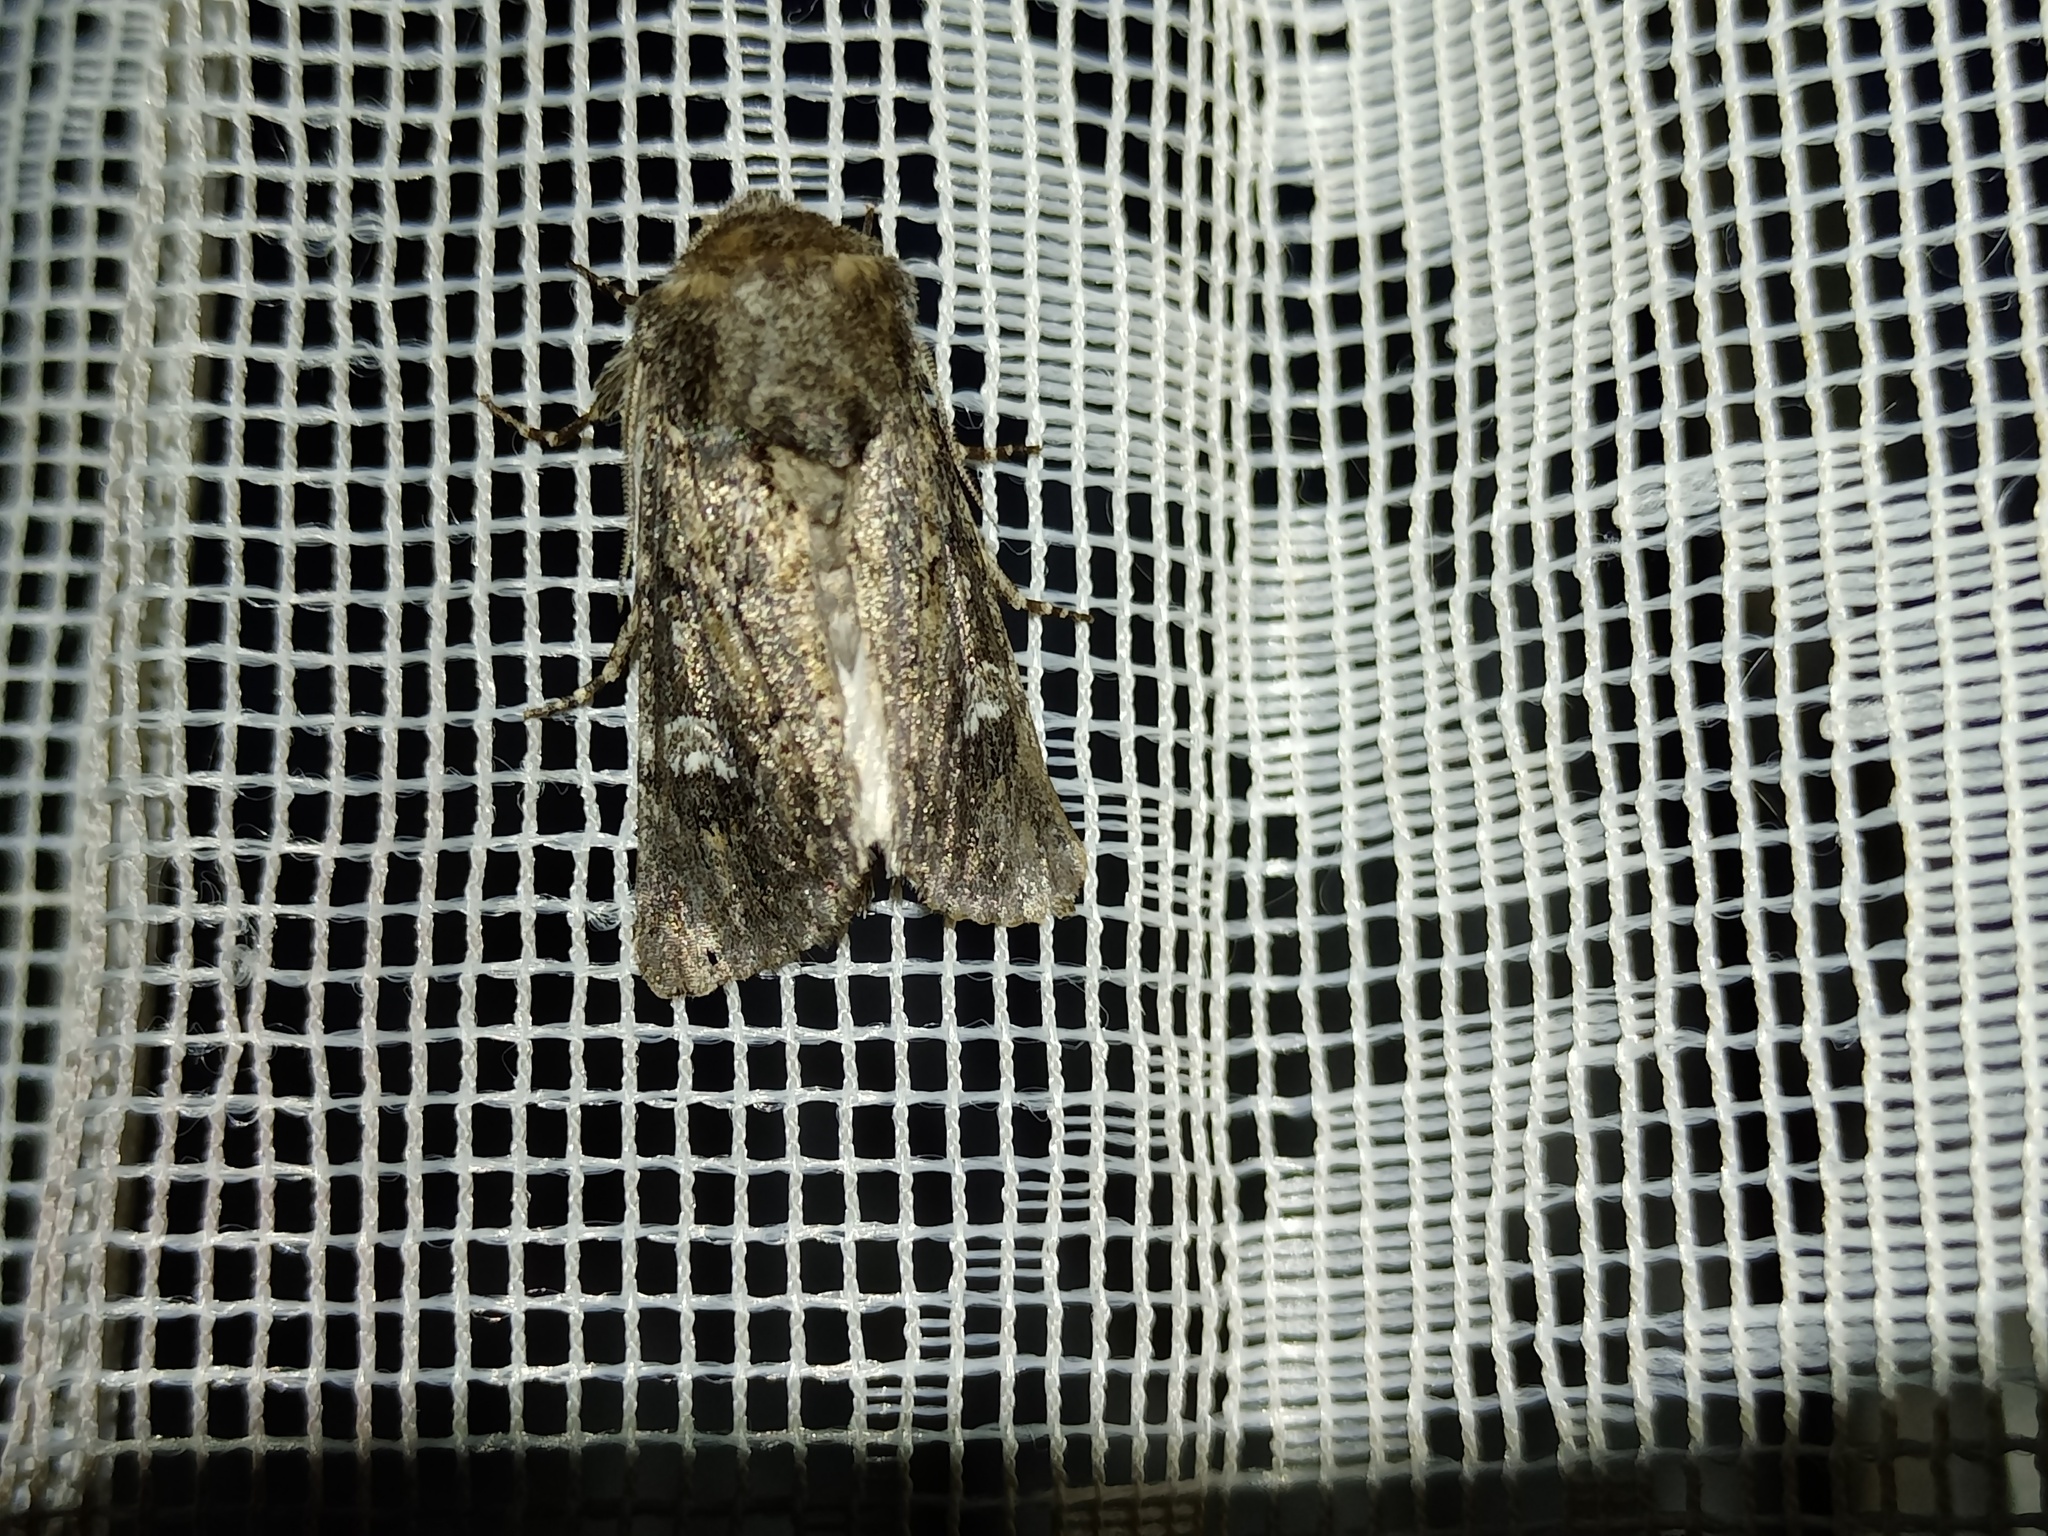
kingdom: Animalia
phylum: Arthropoda
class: Insecta
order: Lepidoptera
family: Noctuidae
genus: Luperina
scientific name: Luperina nickerlii
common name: Sandhill rustic
